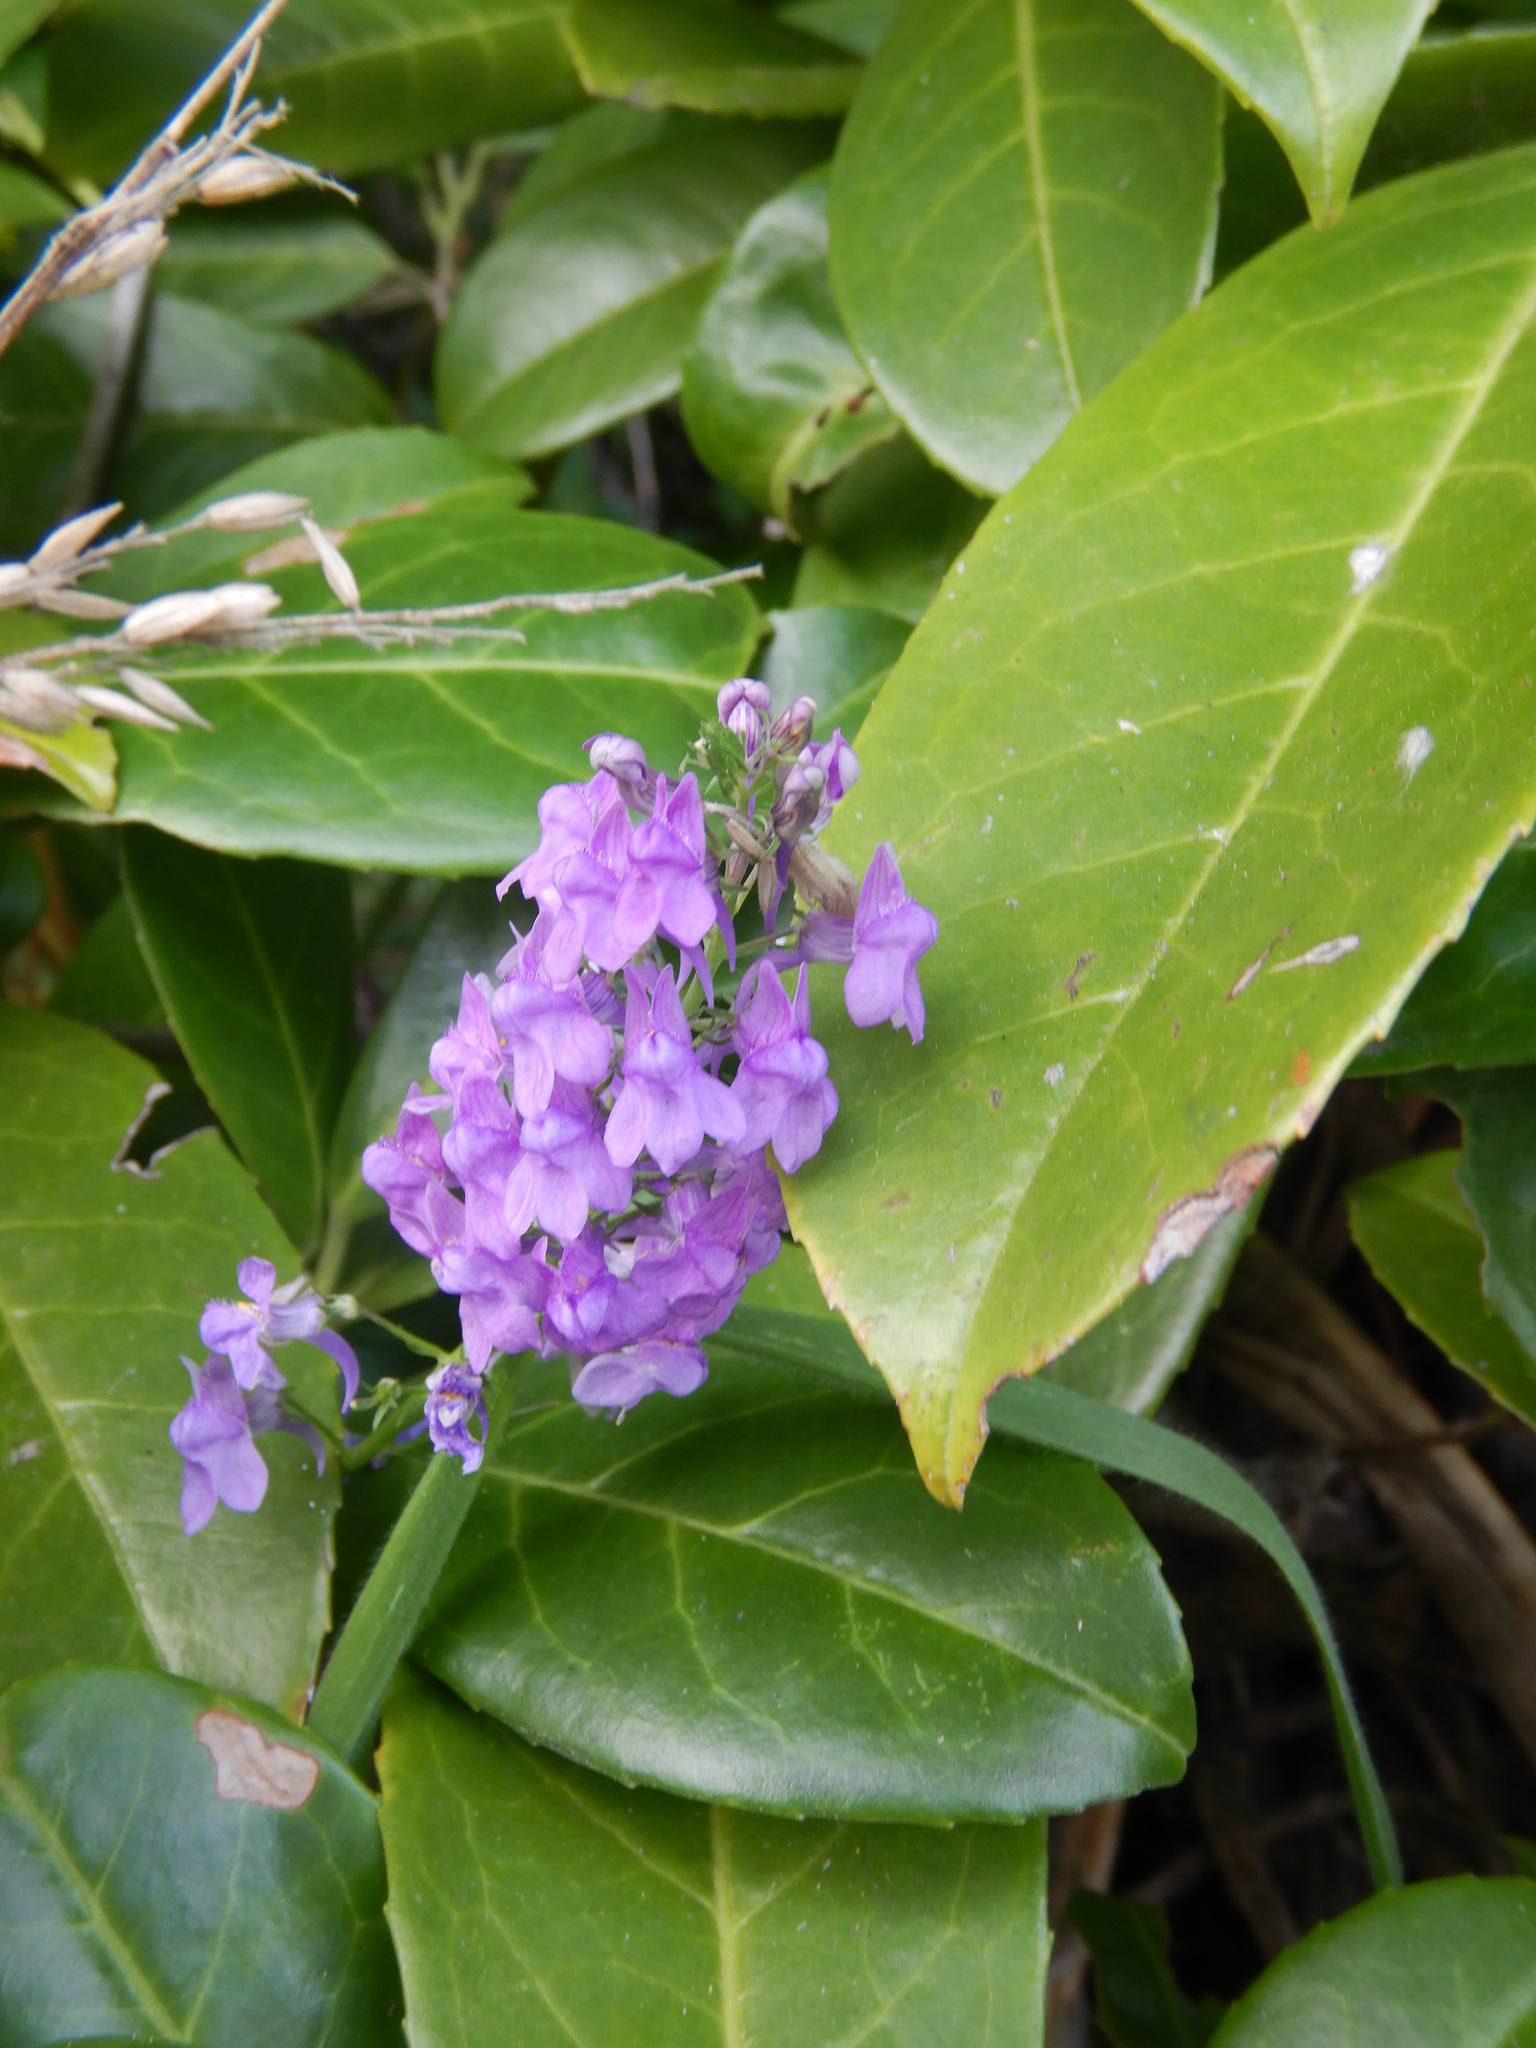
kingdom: Plantae
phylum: Tracheophyta
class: Magnoliopsida
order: Lamiales
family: Plantaginaceae
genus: Linaria
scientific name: Linaria purpurea
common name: Purple toadflax
